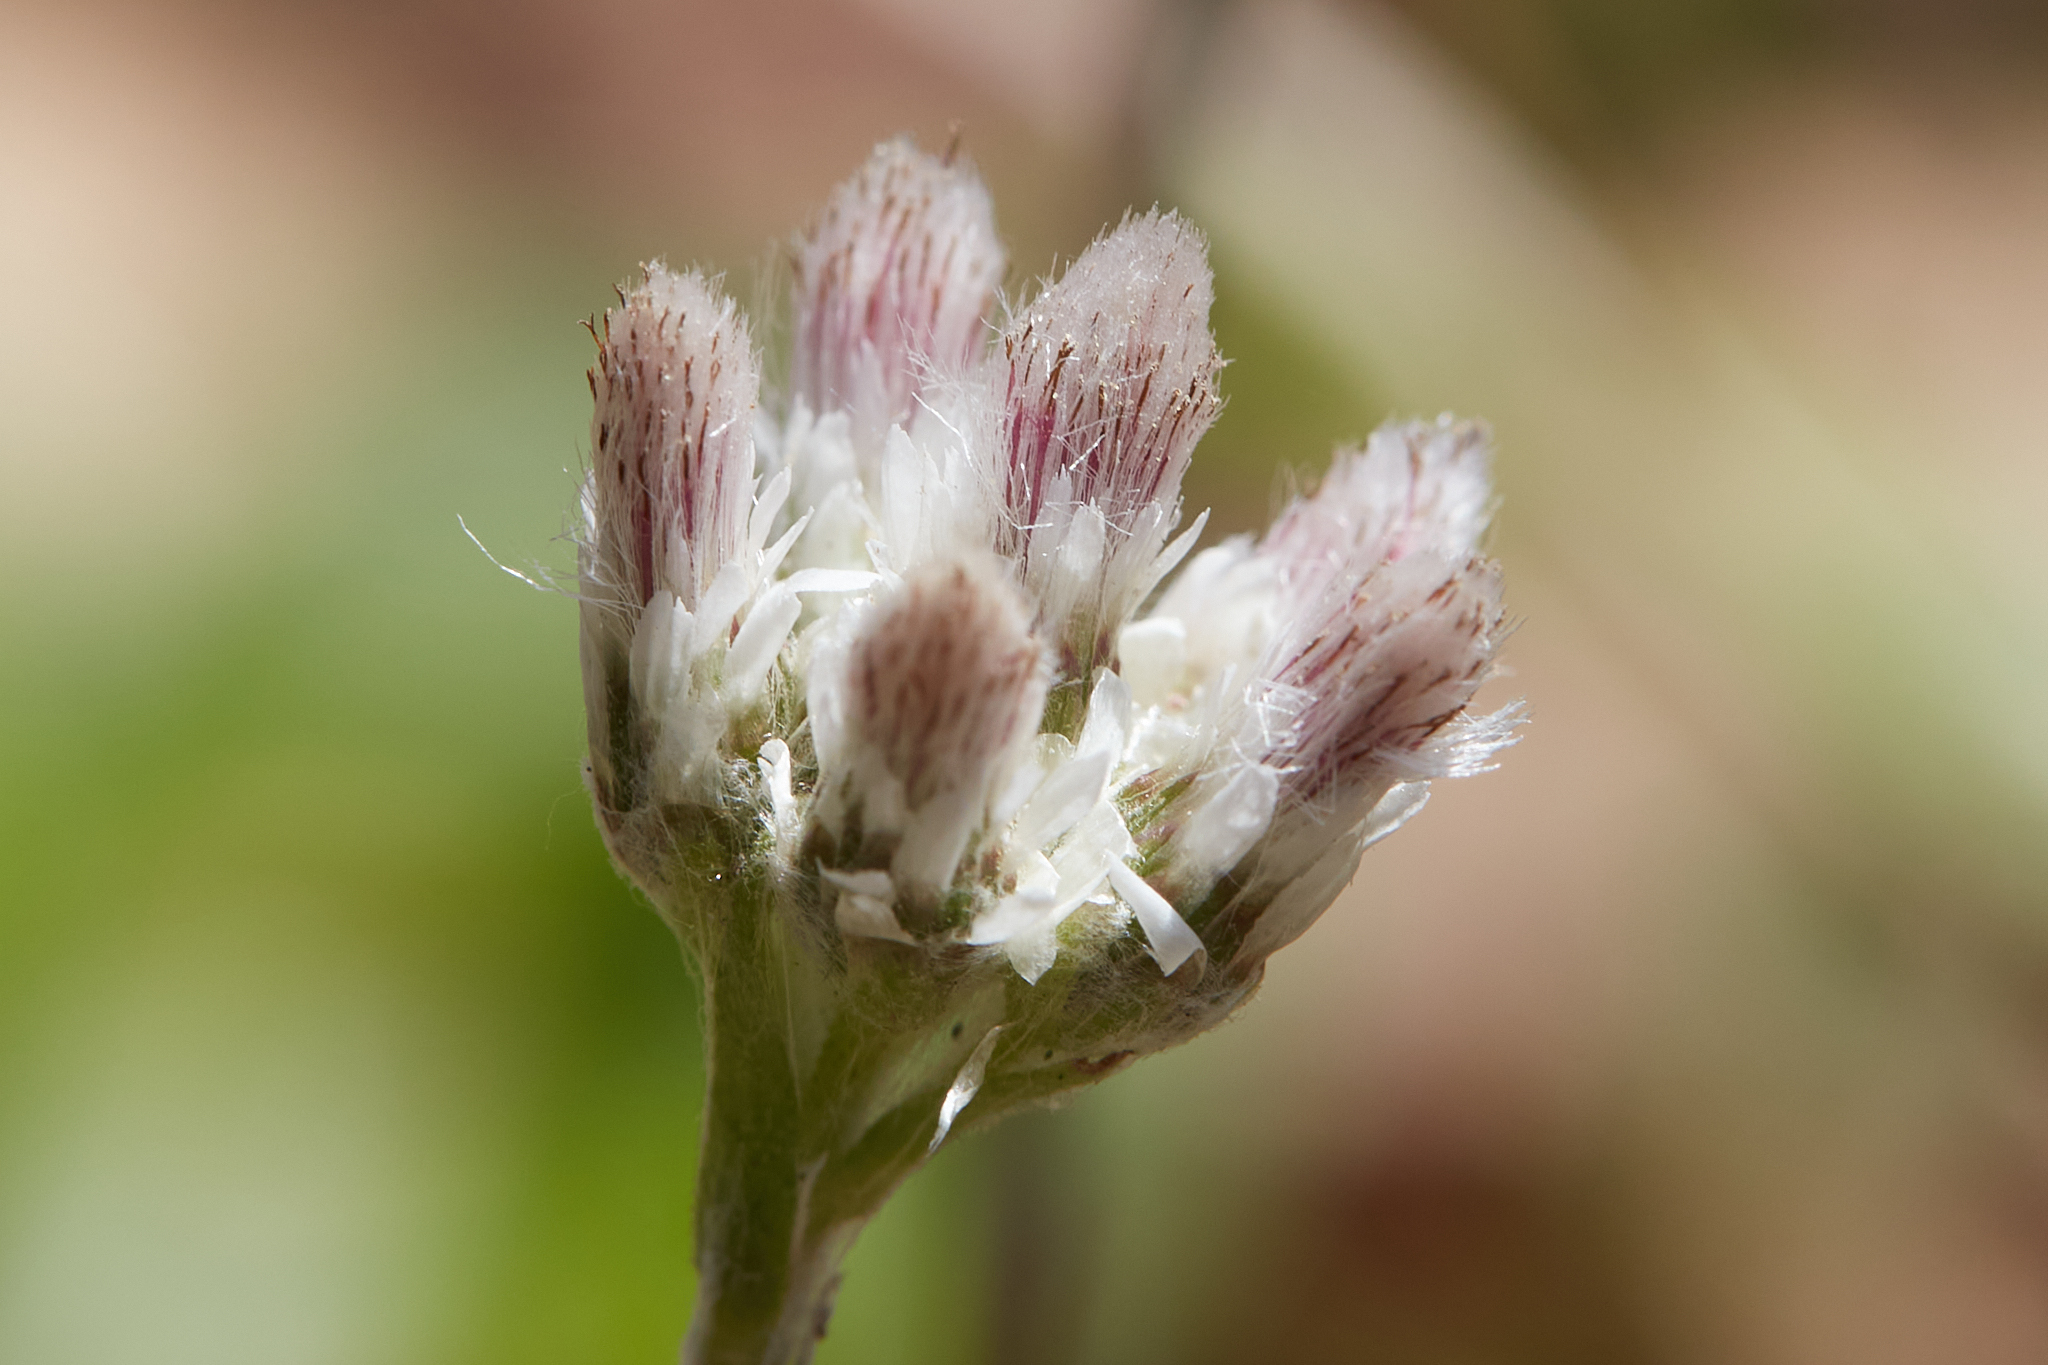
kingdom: Plantae
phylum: Tracheophyta
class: Magnoliopsida
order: Asterales
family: Asteraceae
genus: Antennaria
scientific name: Antennaria plantaginifolia
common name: Plantain-leaved pussytoes
